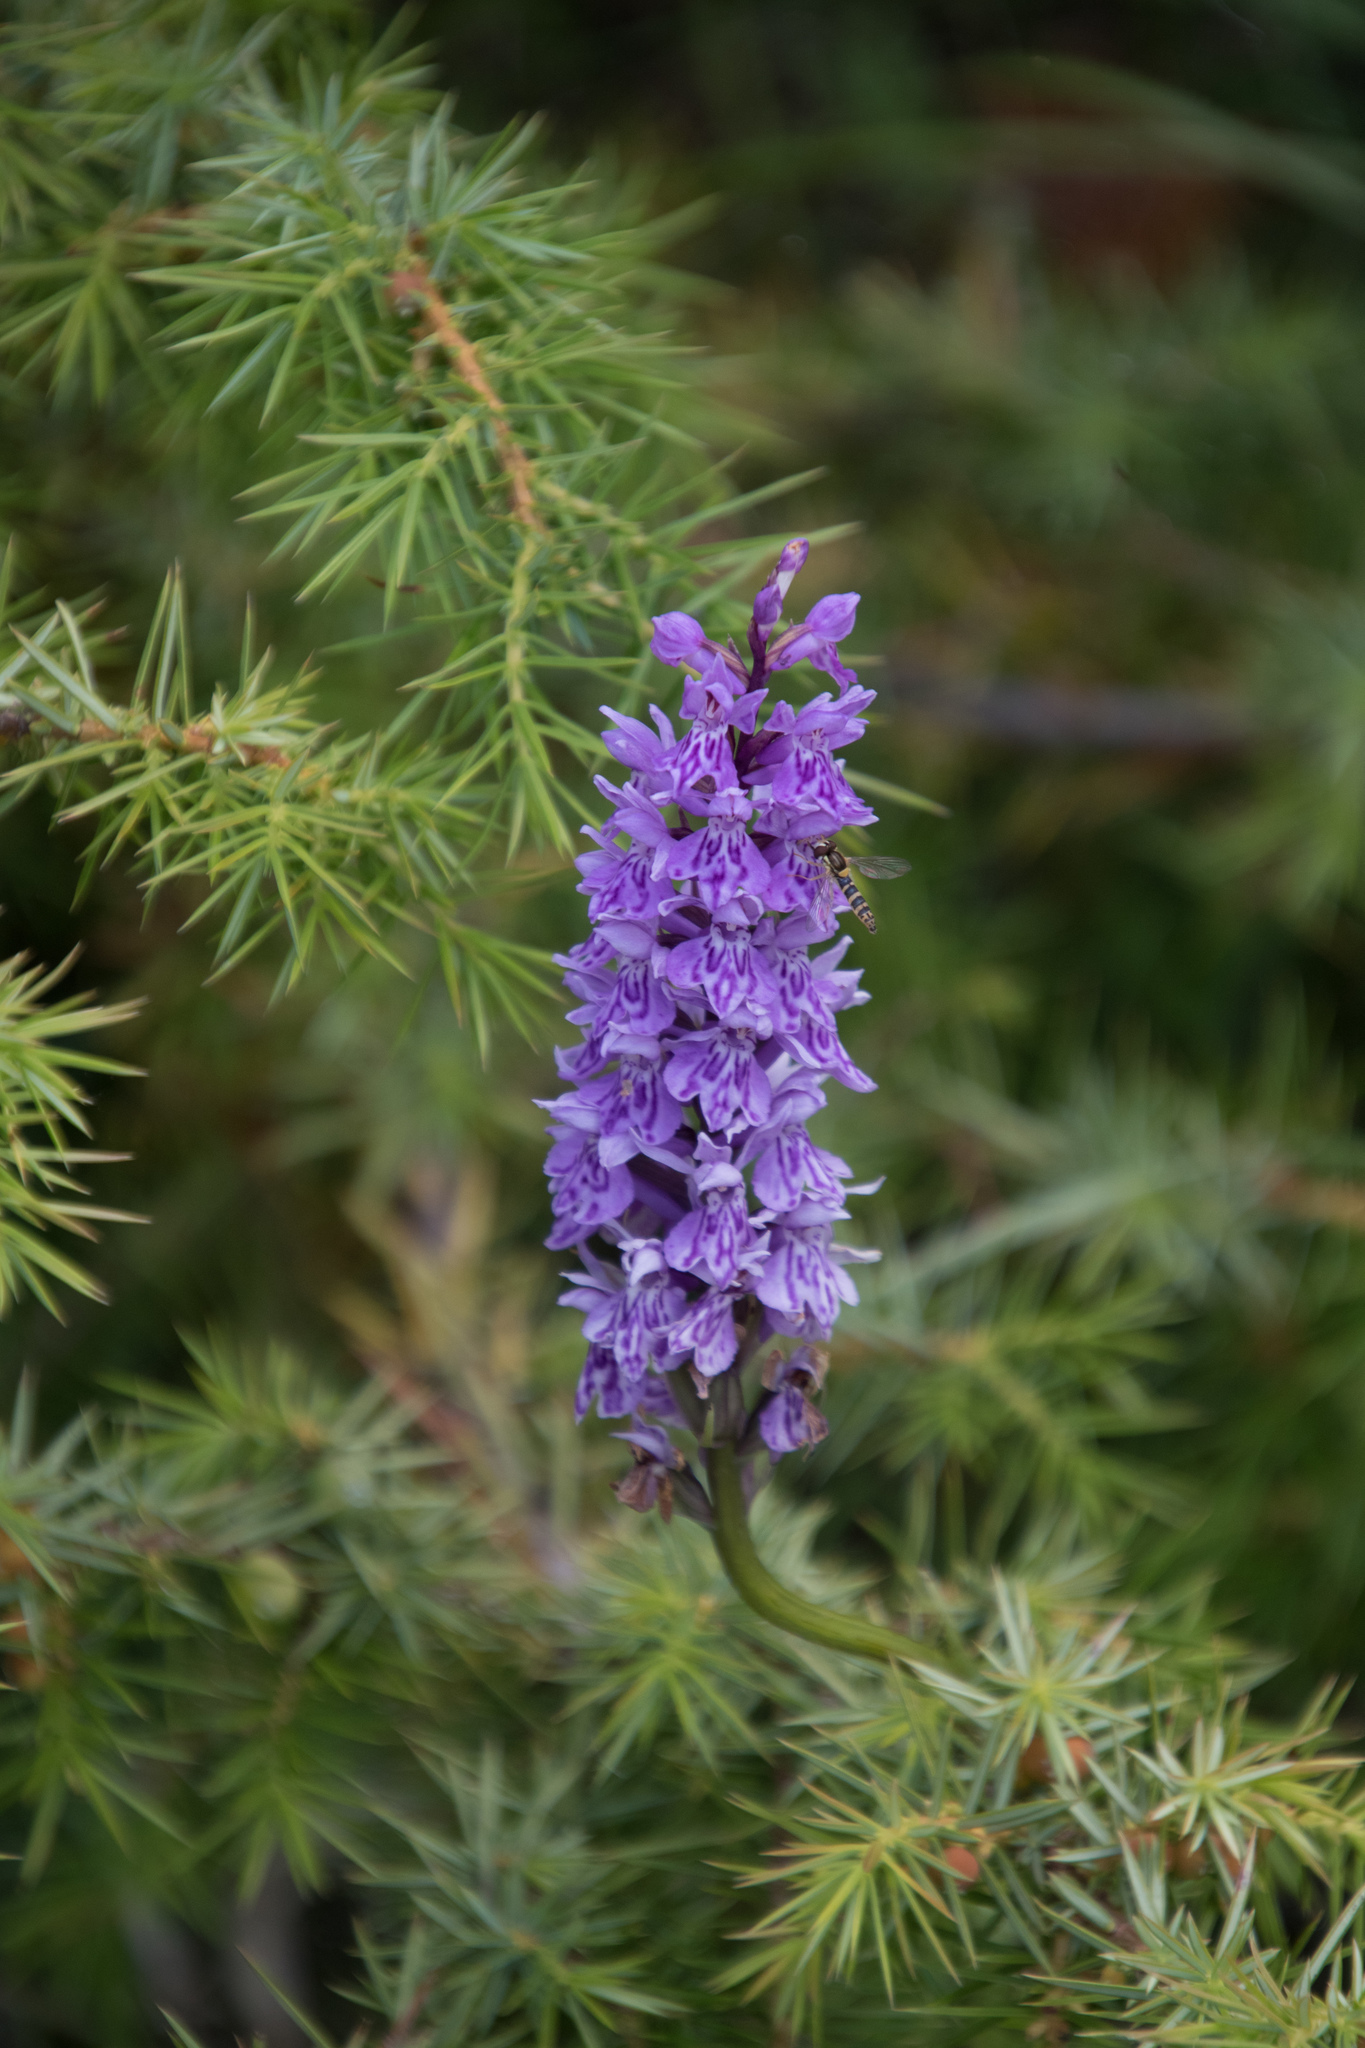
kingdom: Plantae
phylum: Tracheophyta
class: Liliopsida
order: Asparagales
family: Orchidaceae
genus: Dactylorhiza
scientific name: Dactylorhiza maculata
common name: Heath spotted-orchid
